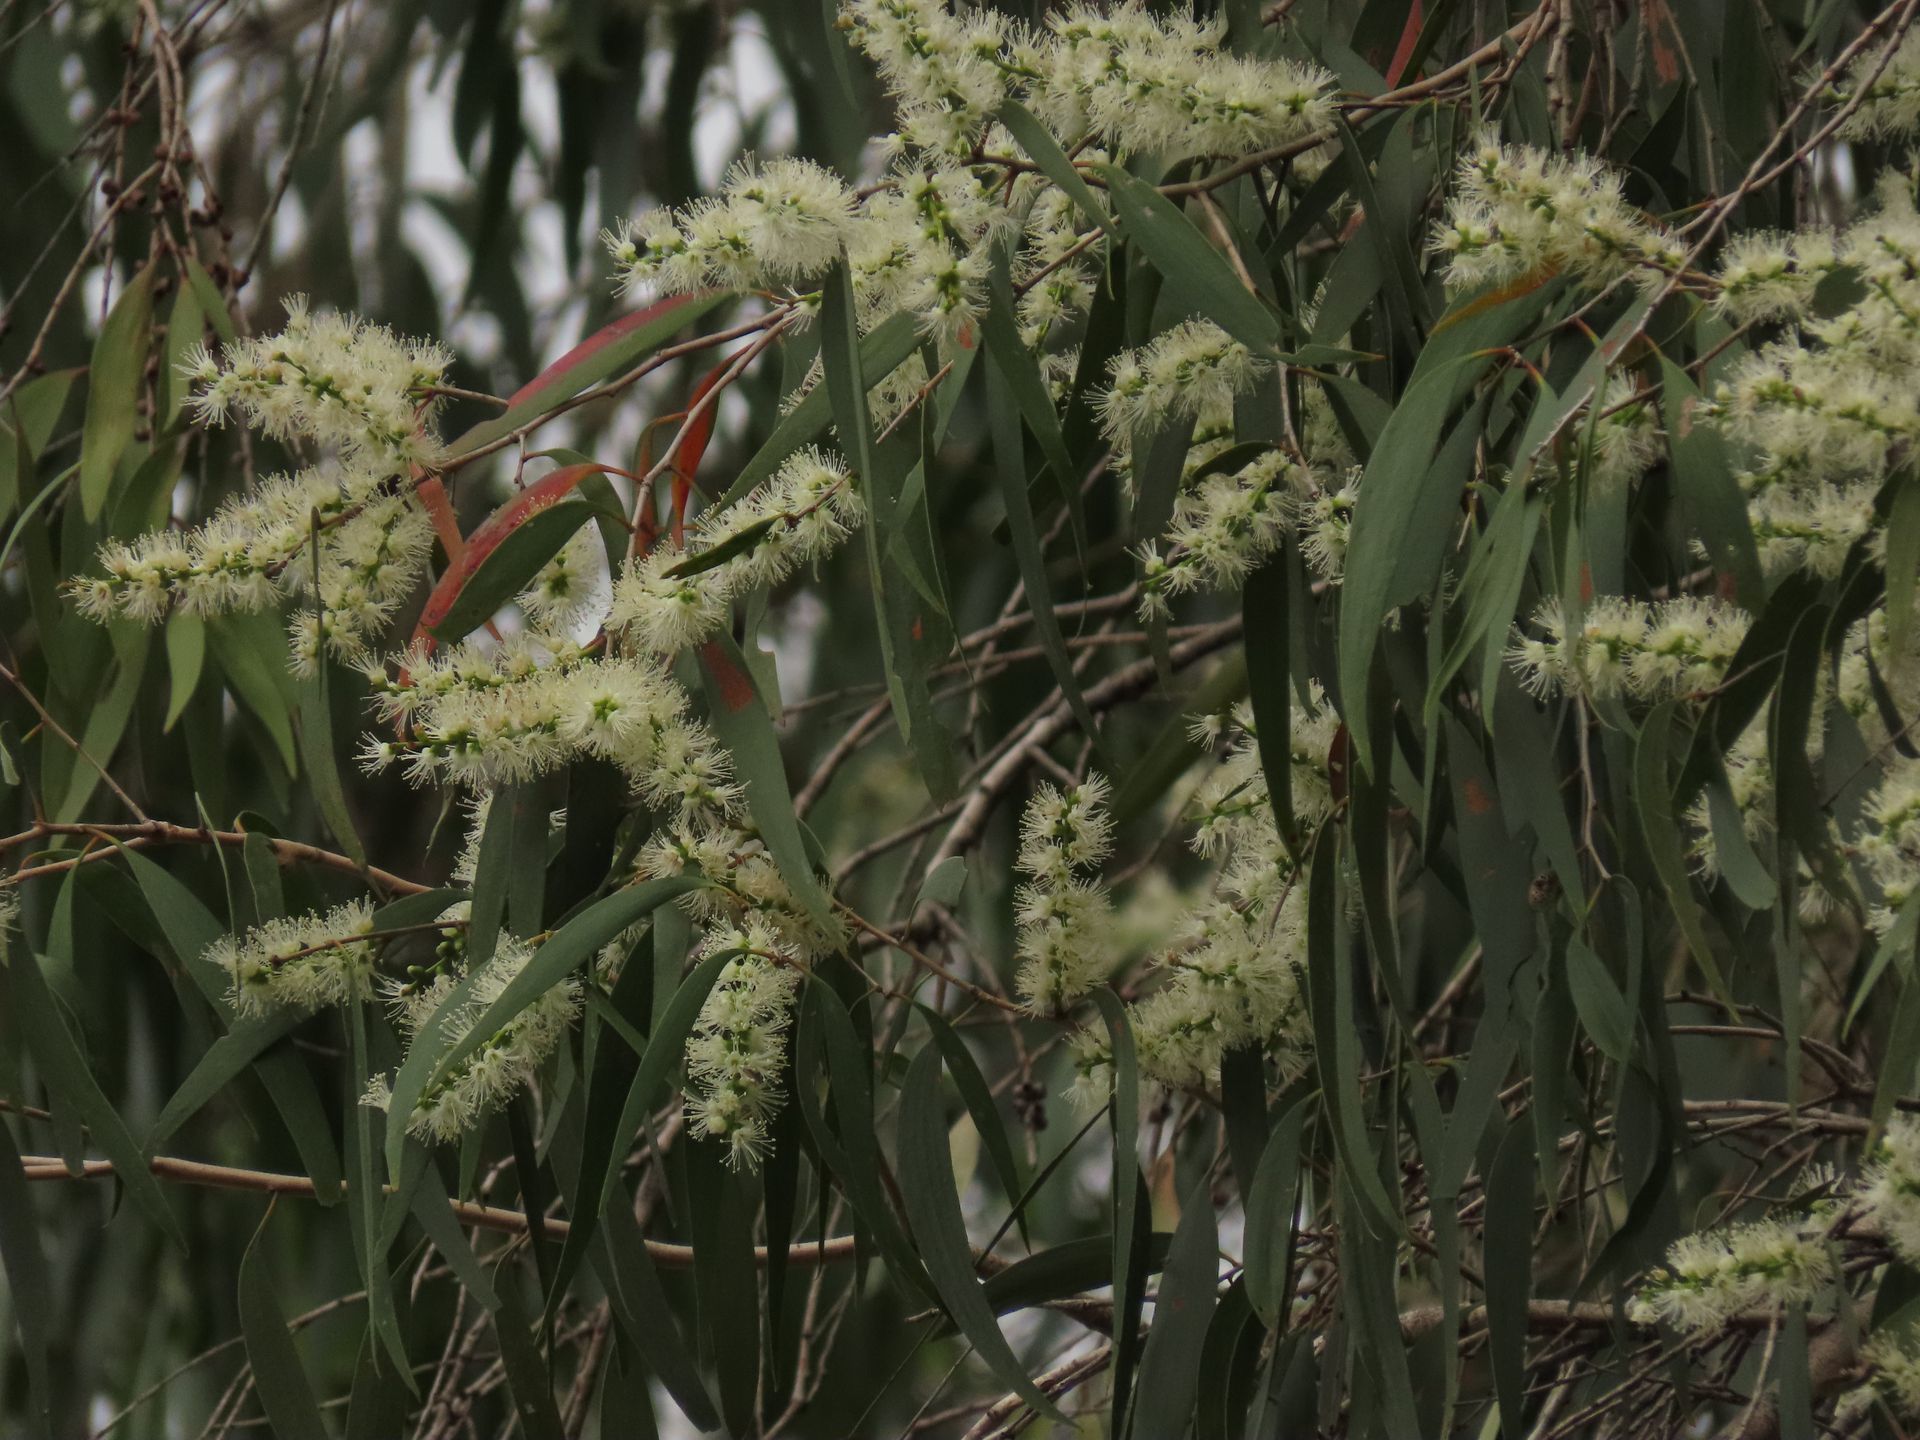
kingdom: Plantae
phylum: Tracheophyta
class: Magnoliopsida
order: Myrtales
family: Myrtaceae
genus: Melaleuca
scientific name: Melaleuca leucadendra
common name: Weeping paperbark
